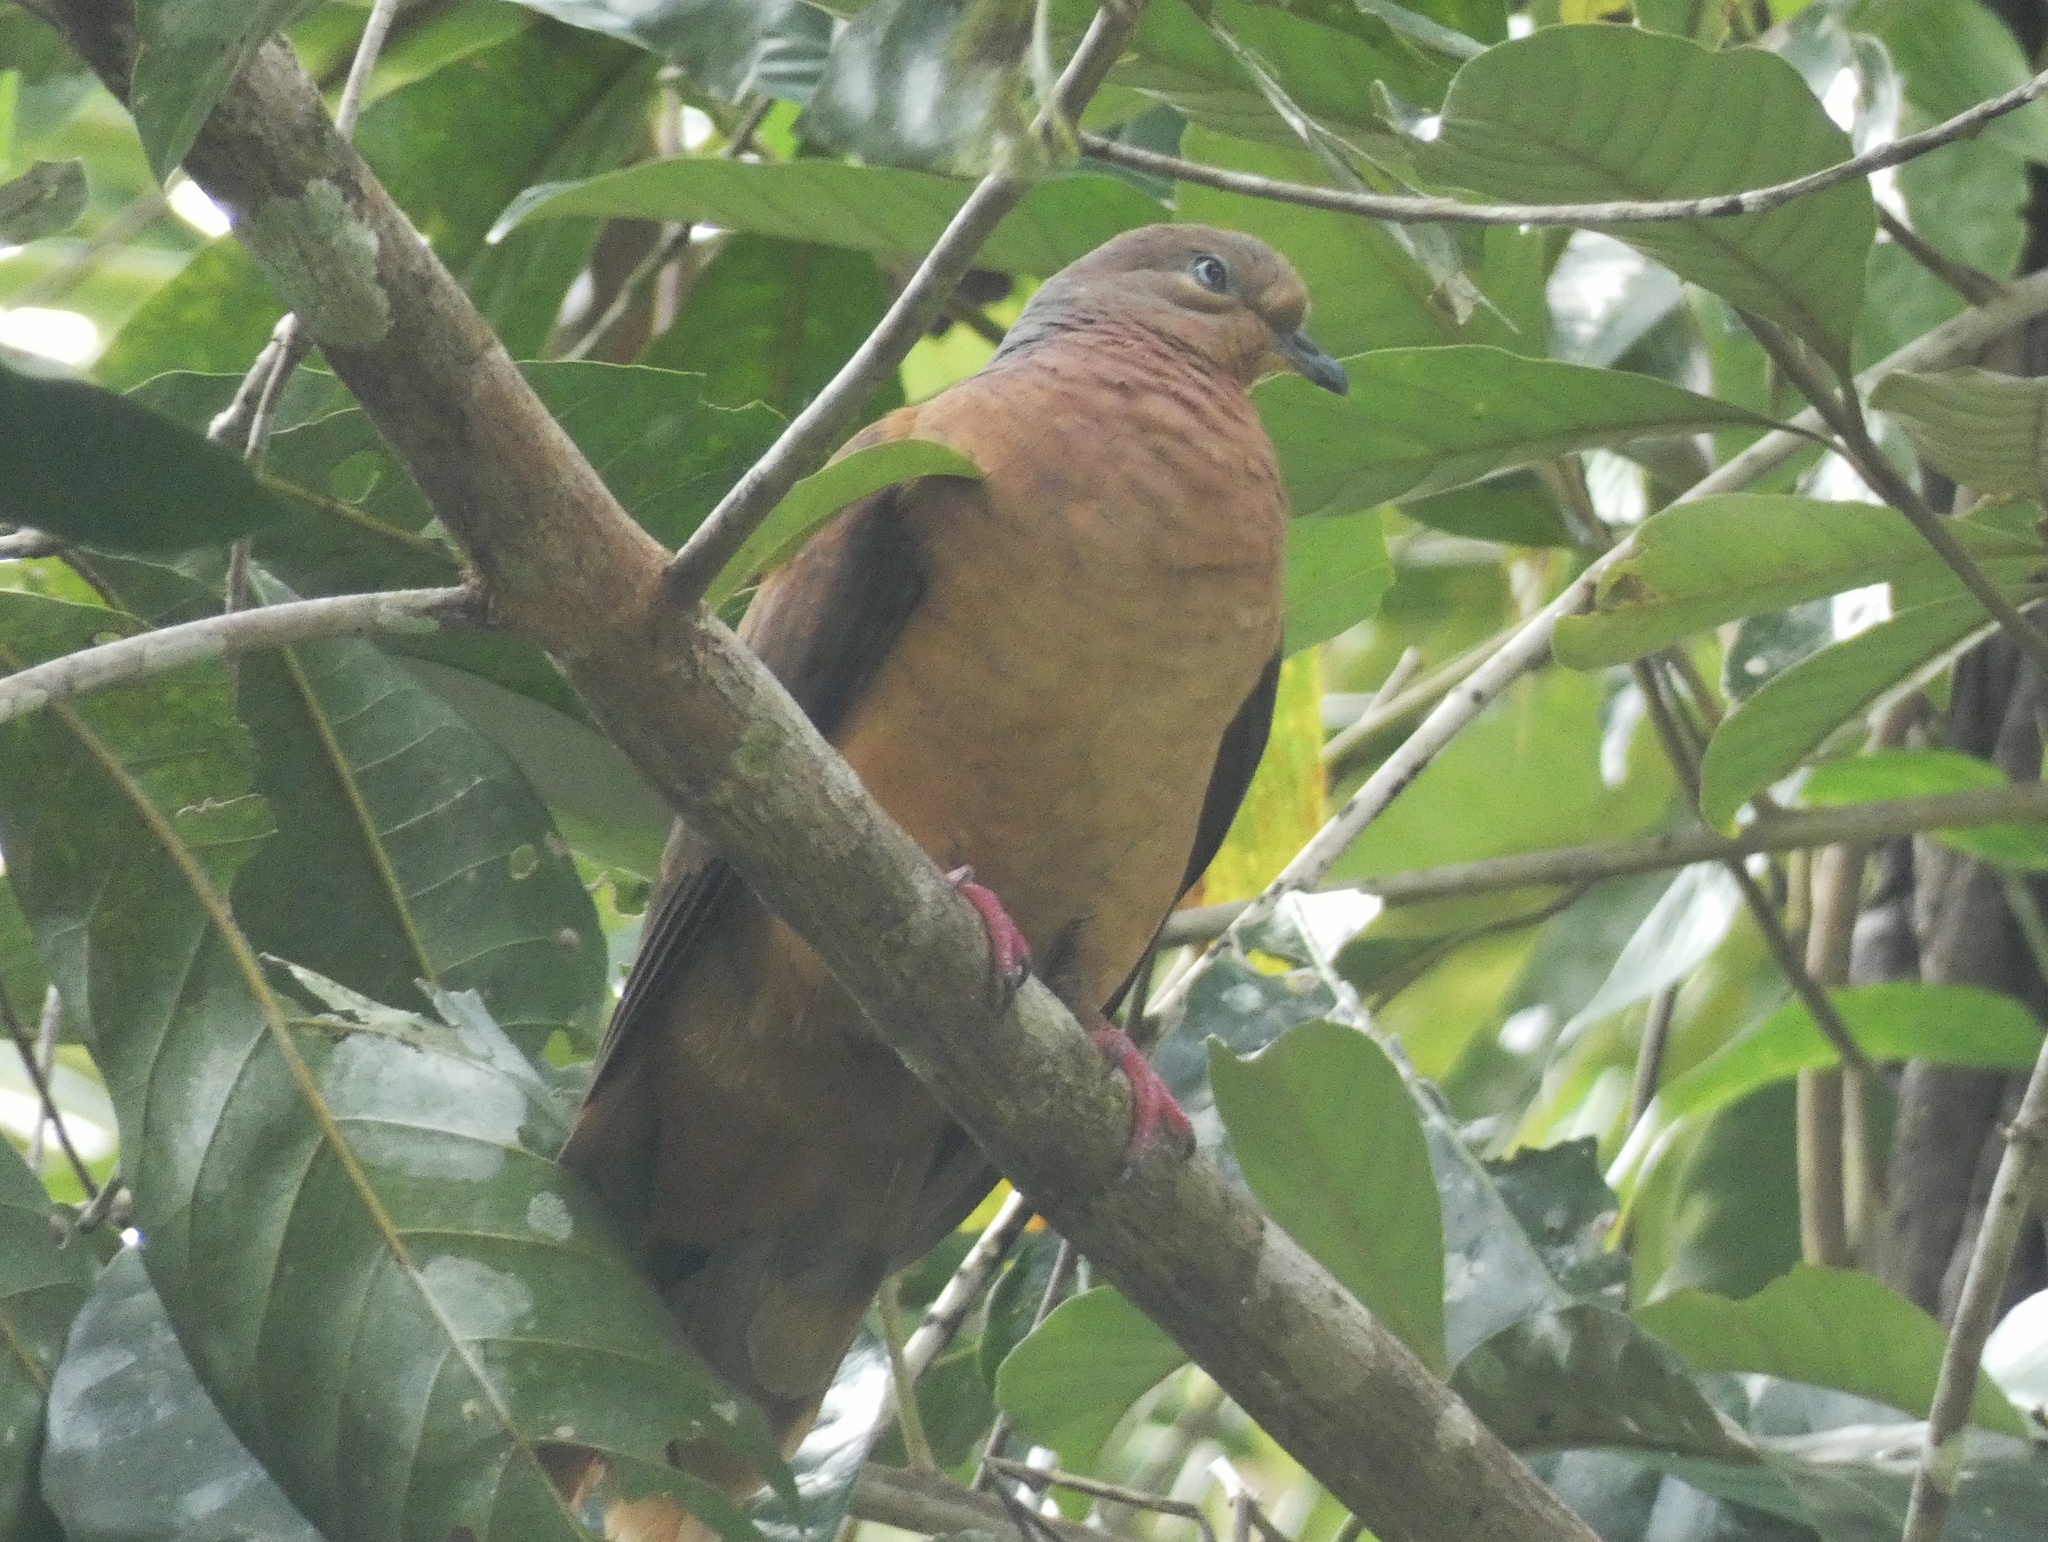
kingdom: Animalia
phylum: Chordata
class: Aves
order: Columbiformes
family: Columbidae
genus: Macropygia
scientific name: Macropygia phasianella
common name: Brown cuckoo-dove
